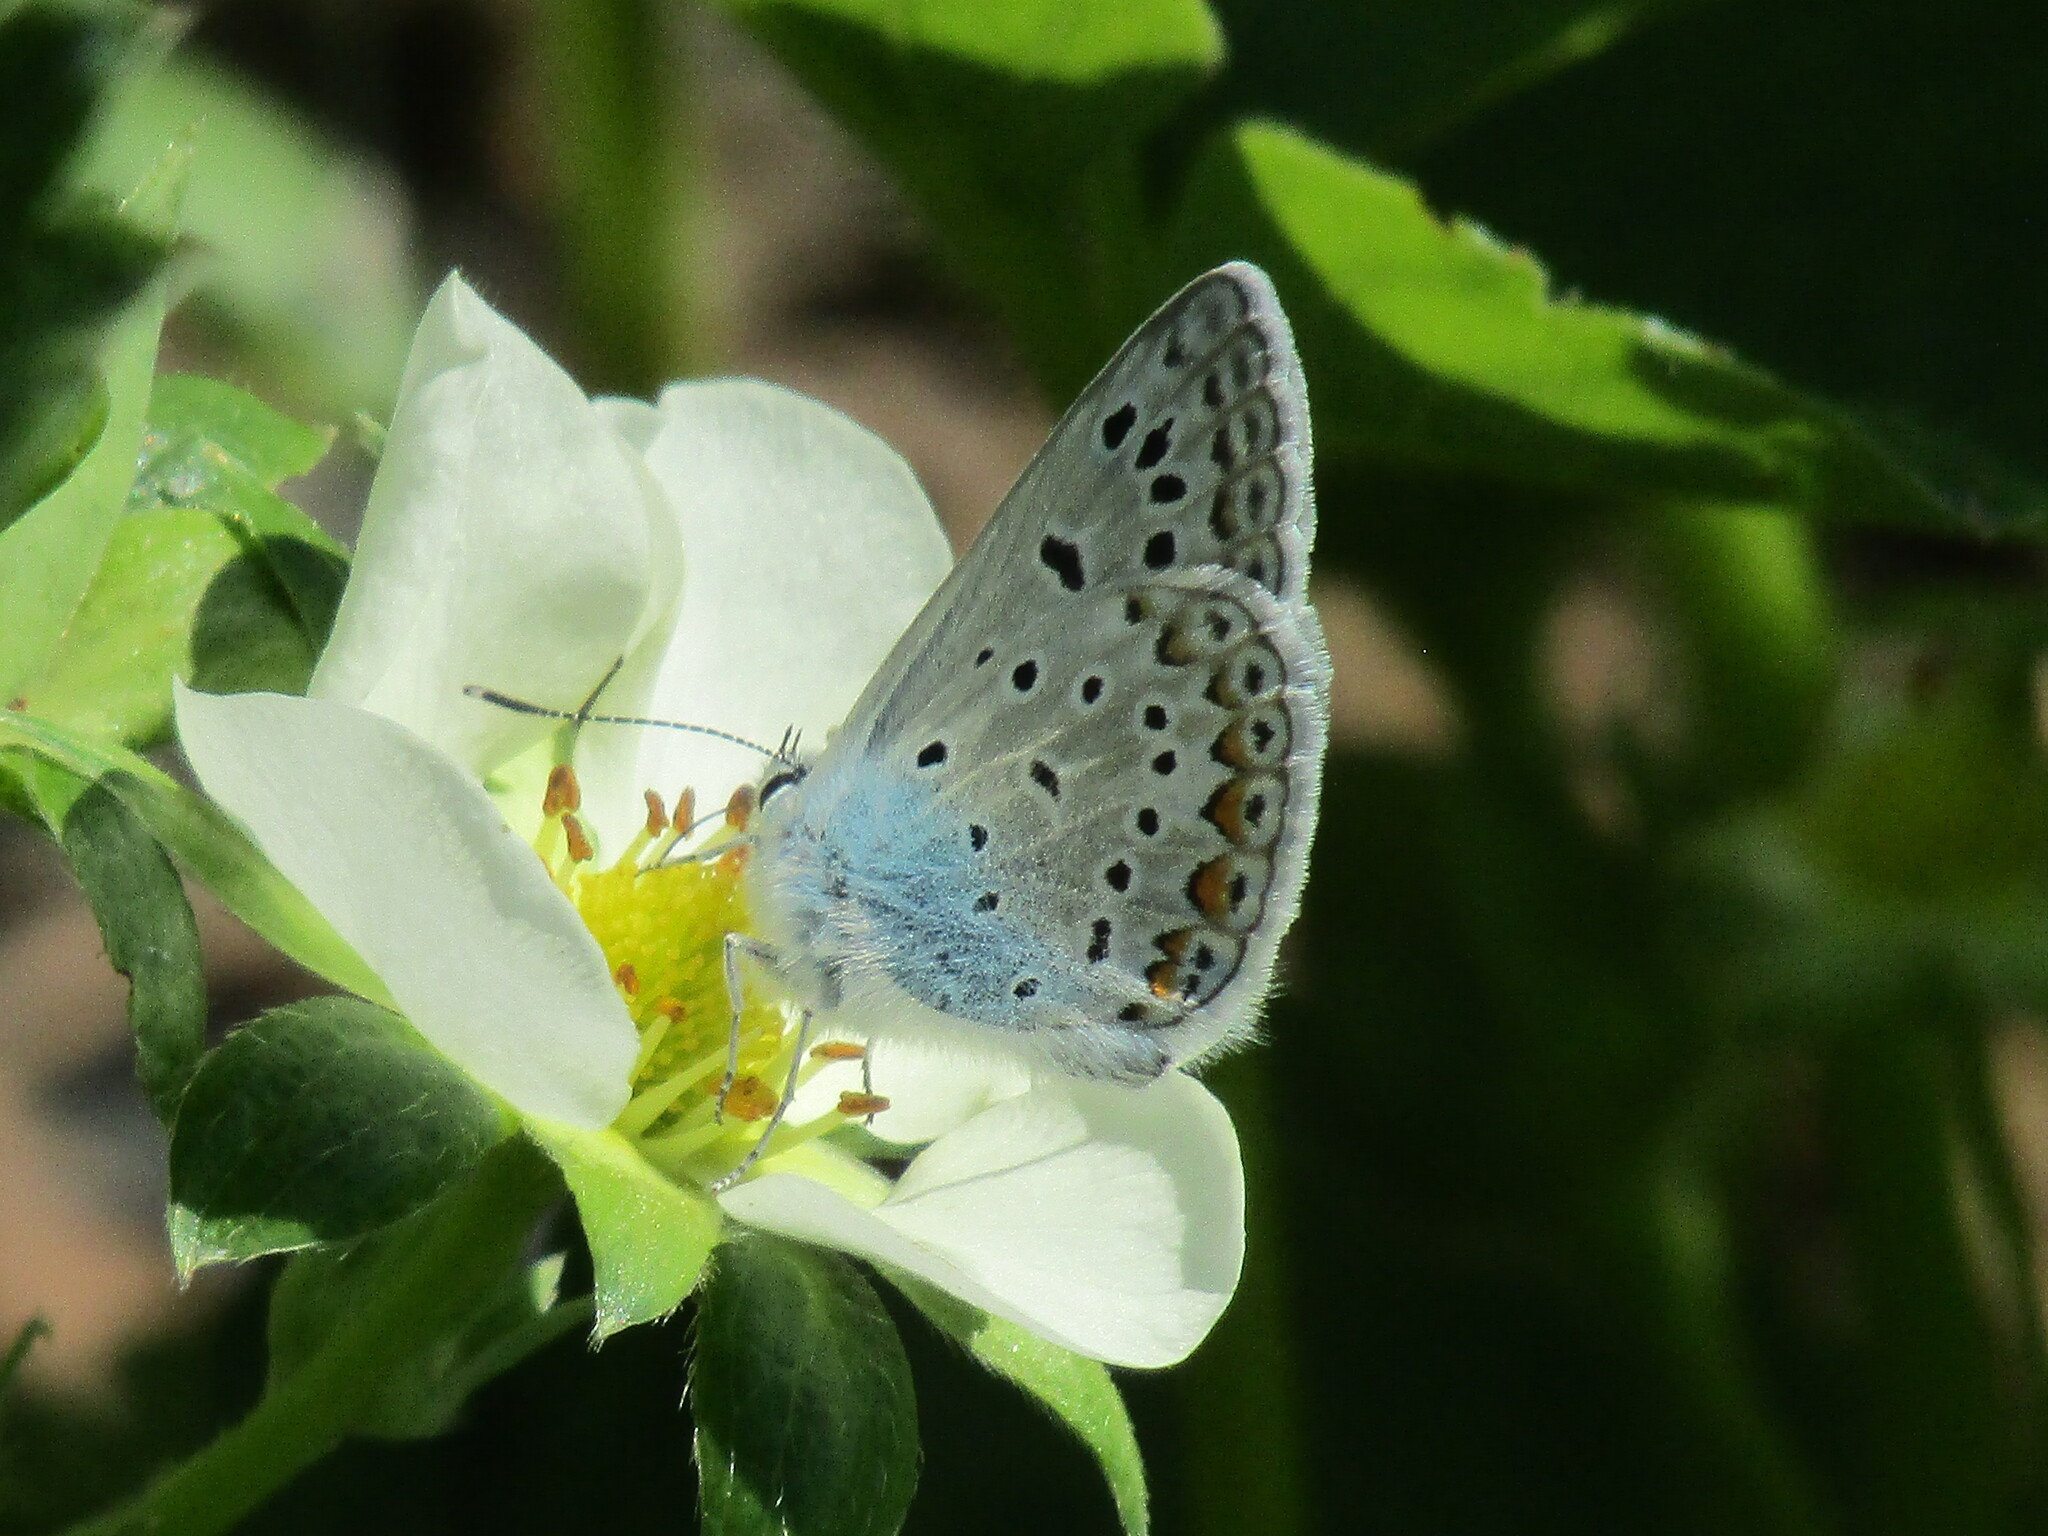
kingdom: Animalia
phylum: Arthropoda
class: Insecta
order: Lepidoptera
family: Lycaenidae
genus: Polyommatus
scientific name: Polyommatus icarus
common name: Common blue
